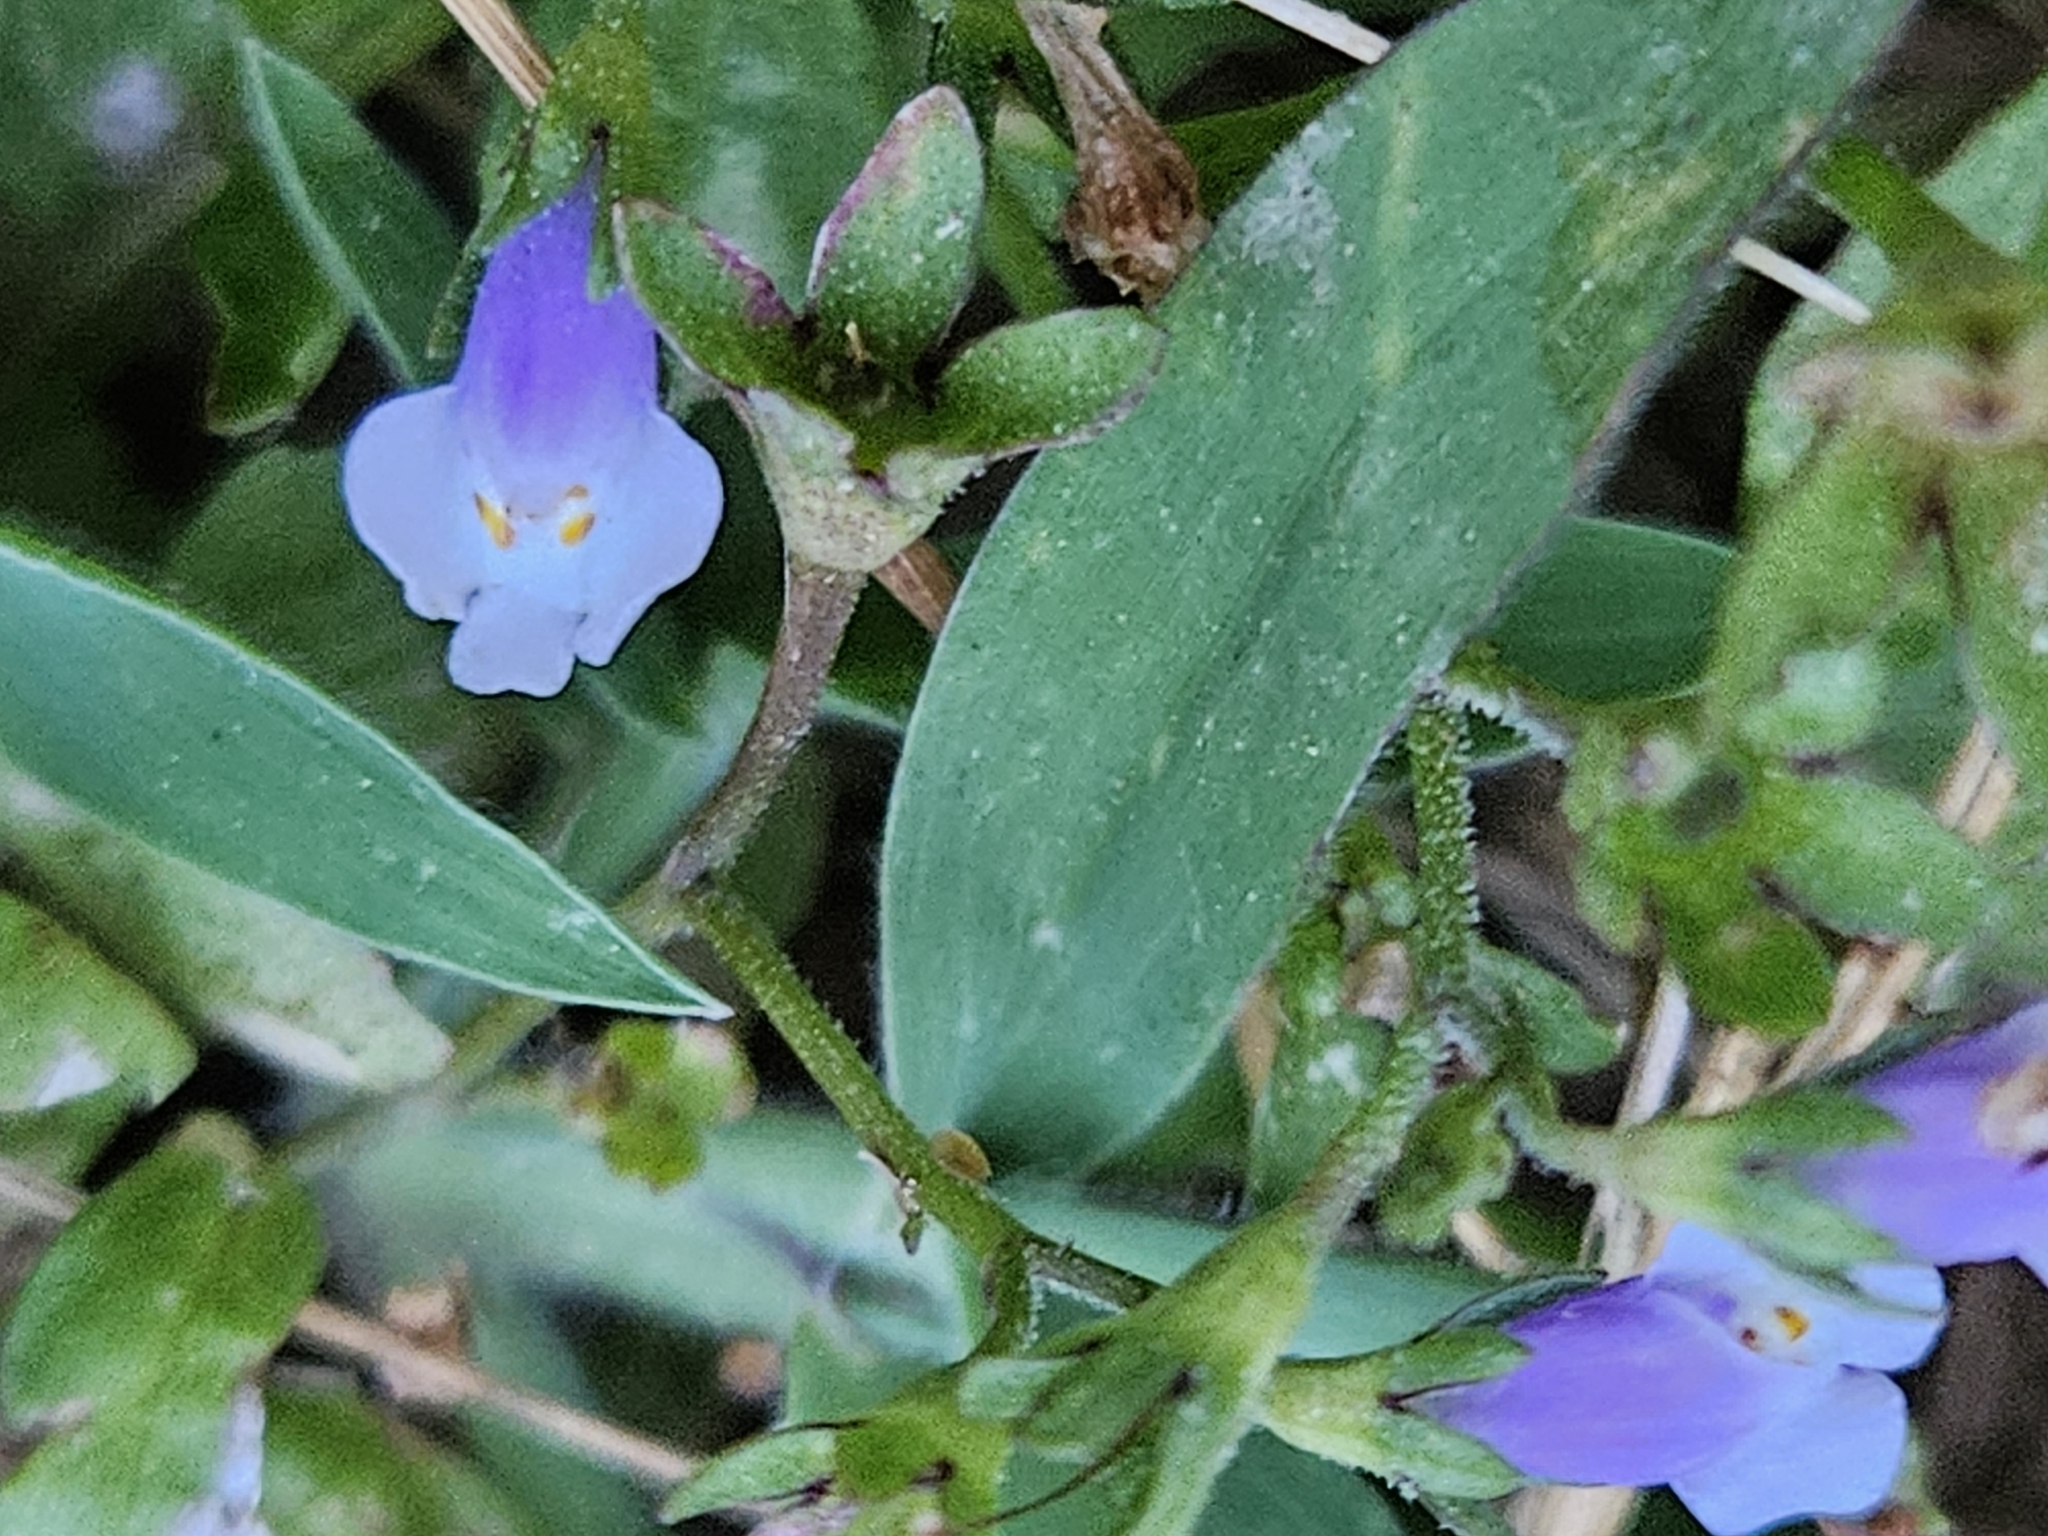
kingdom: Plantae
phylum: Tracheophyta
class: Magnoliopsida
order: Lamiales
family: Mazaceae
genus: Mazus
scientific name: Mazus pumilus
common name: Japanese mazus
